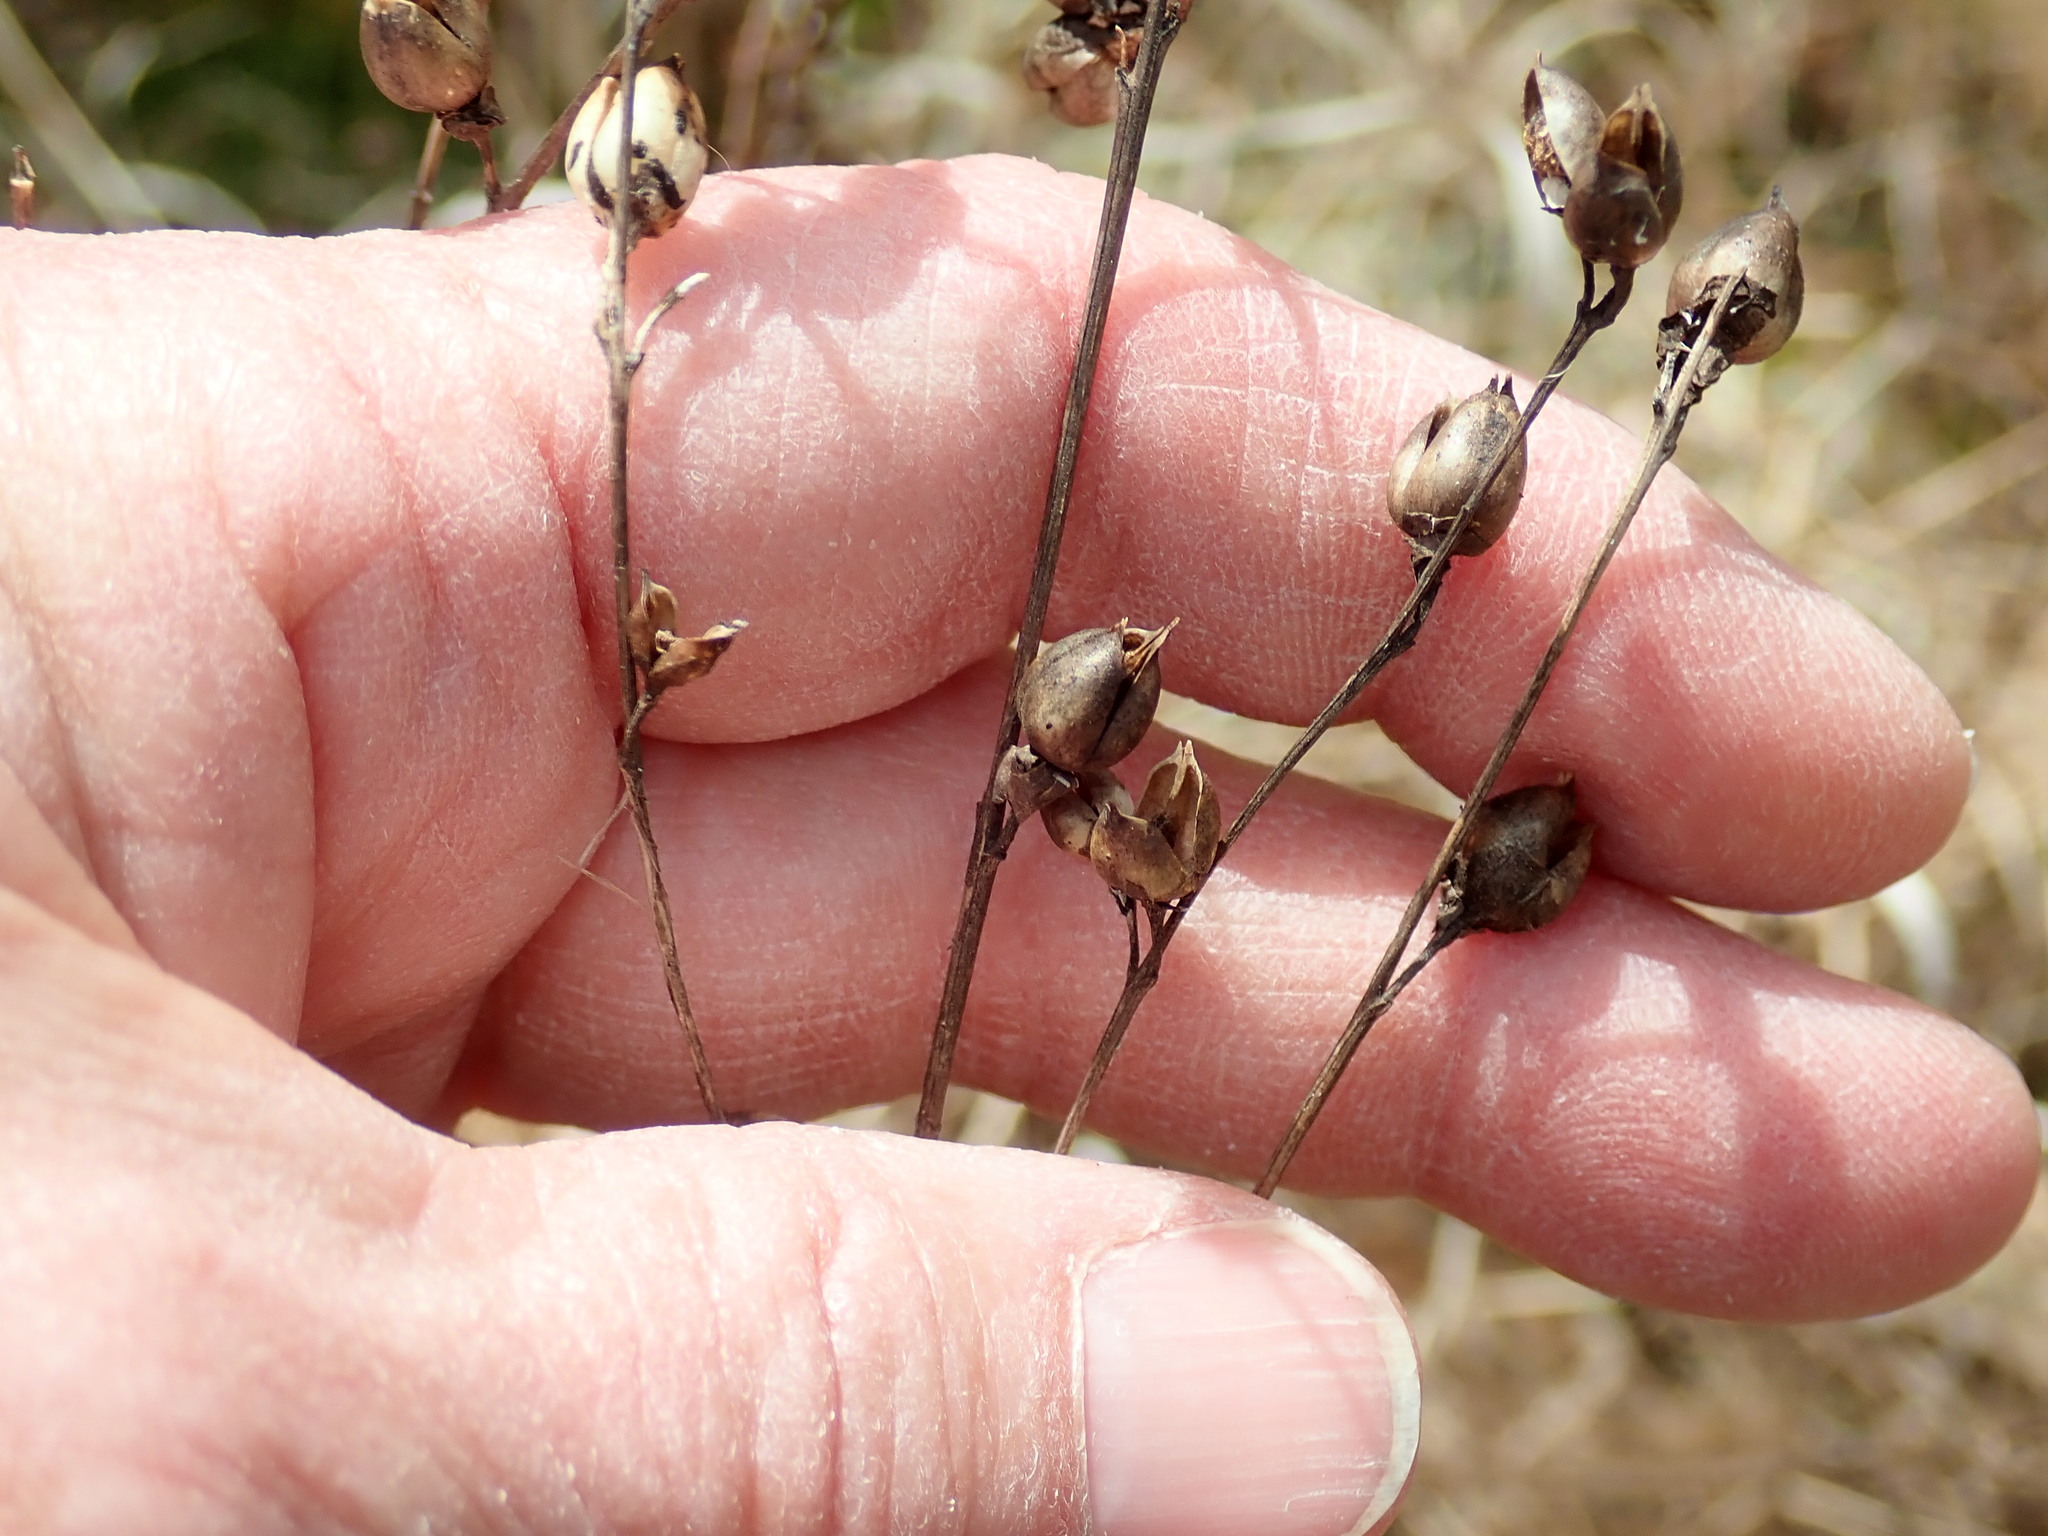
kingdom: Plantae
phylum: Tracheophyta
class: Magnoliopsida
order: Lamiales
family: Orobanchaceae
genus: Agalinis
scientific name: Agalinis
